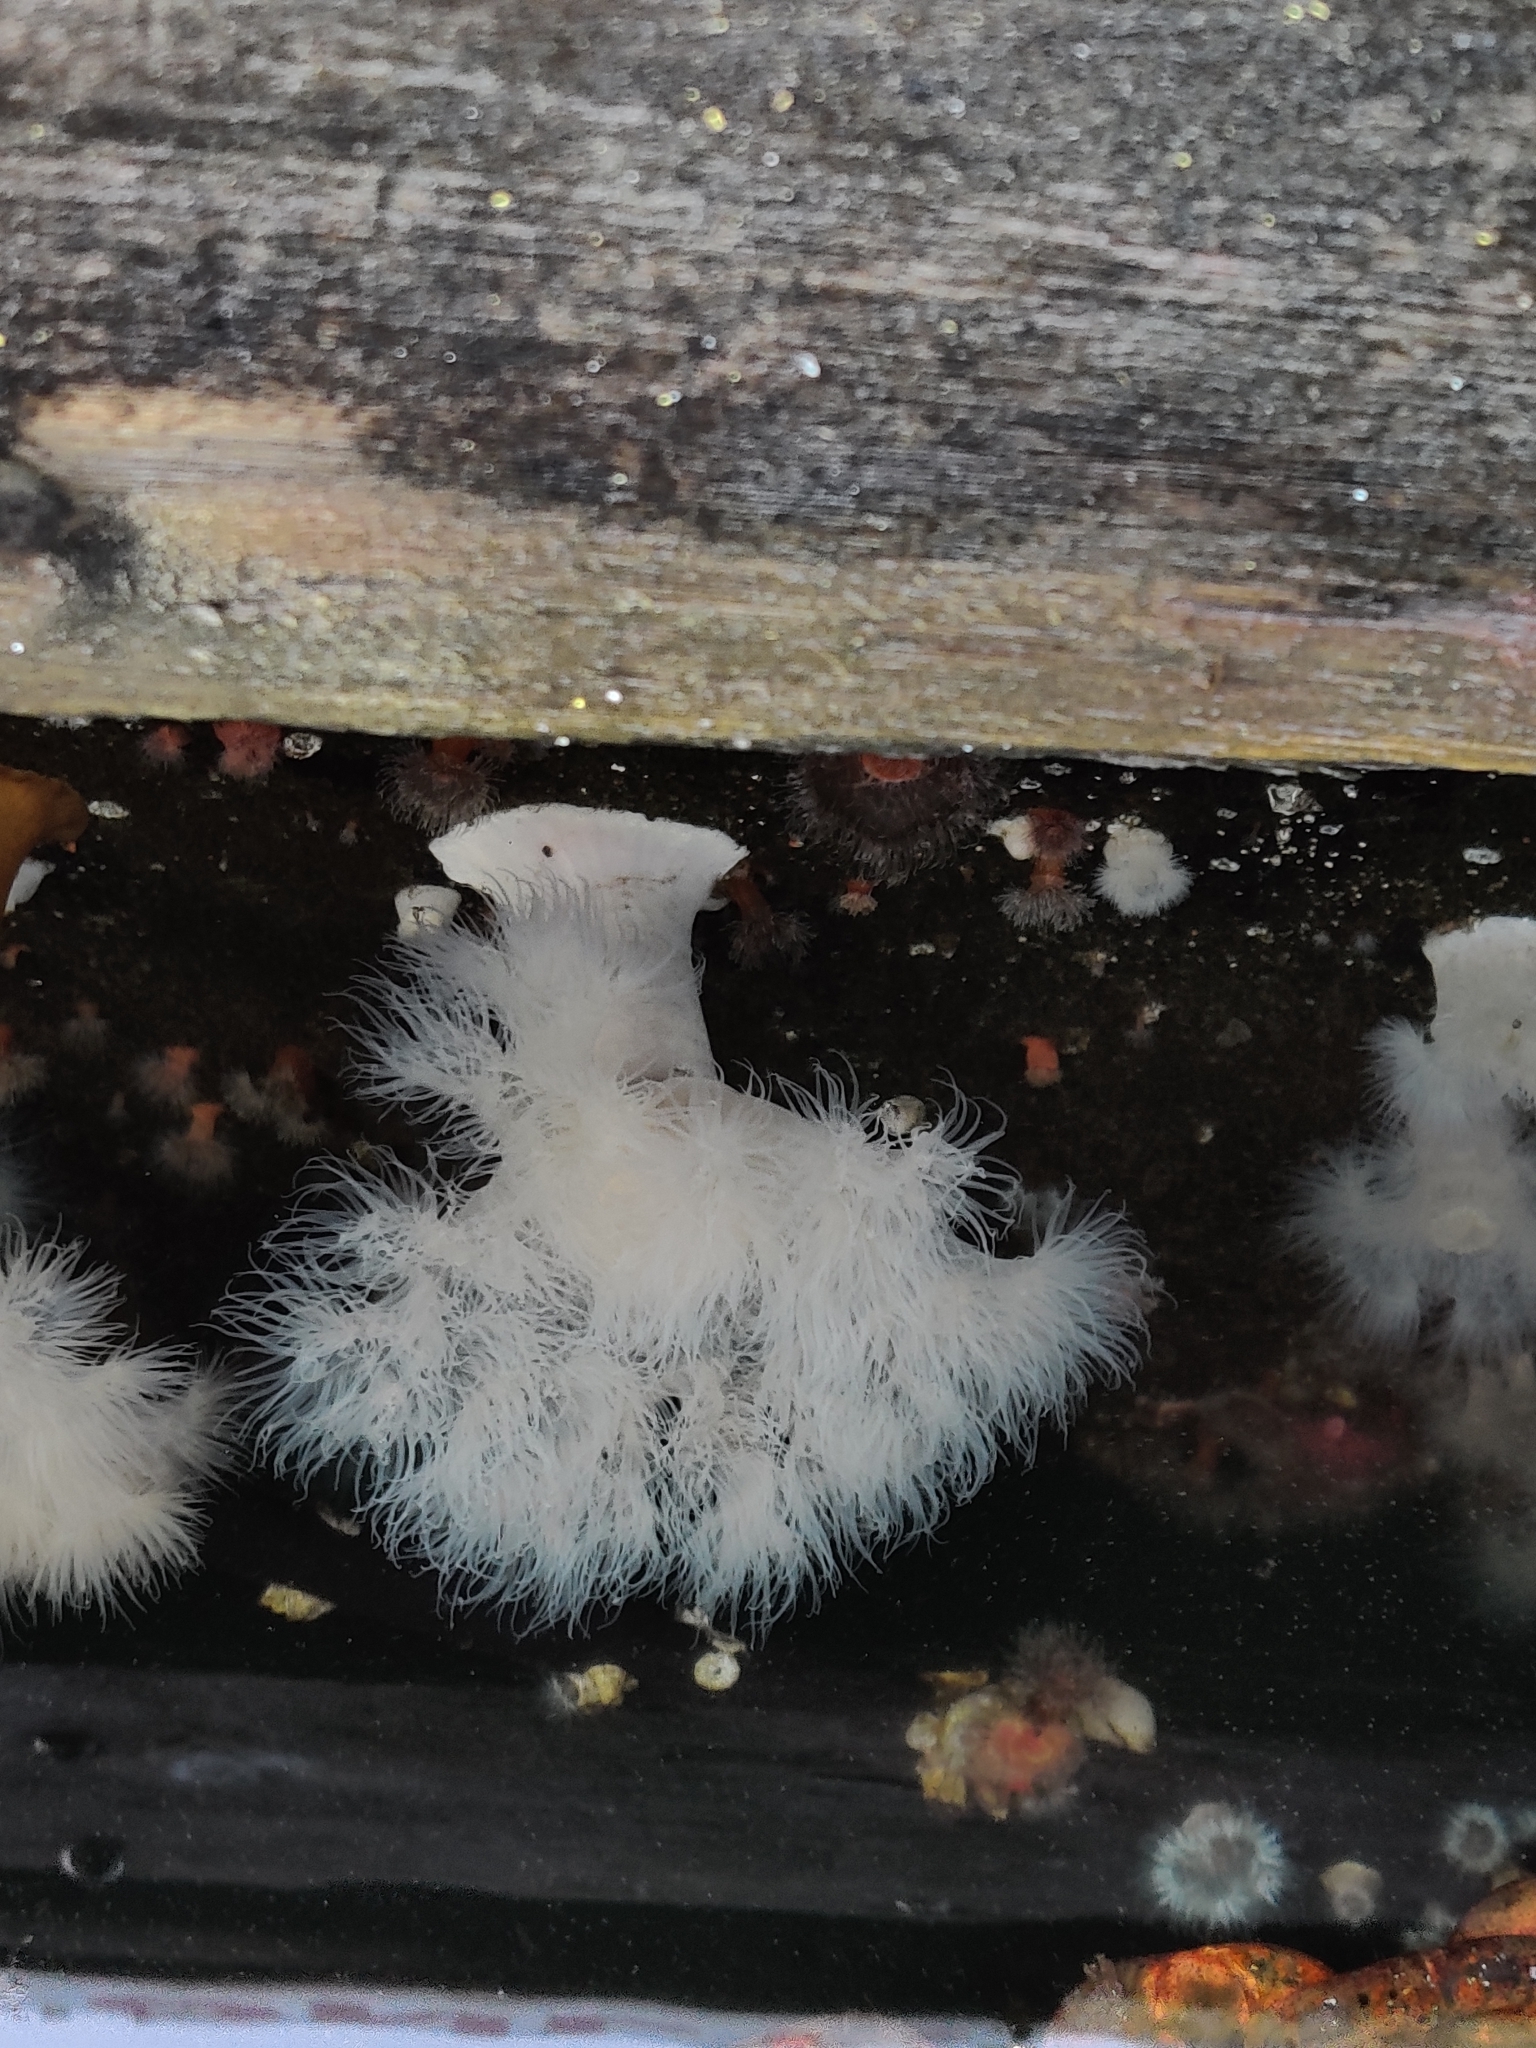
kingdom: Animalia
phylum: Cnidaria
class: Anthozoa
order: Actiniaria
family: Metridiidae
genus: Metridium
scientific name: Metridium senile
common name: Clonal plumose anemone
